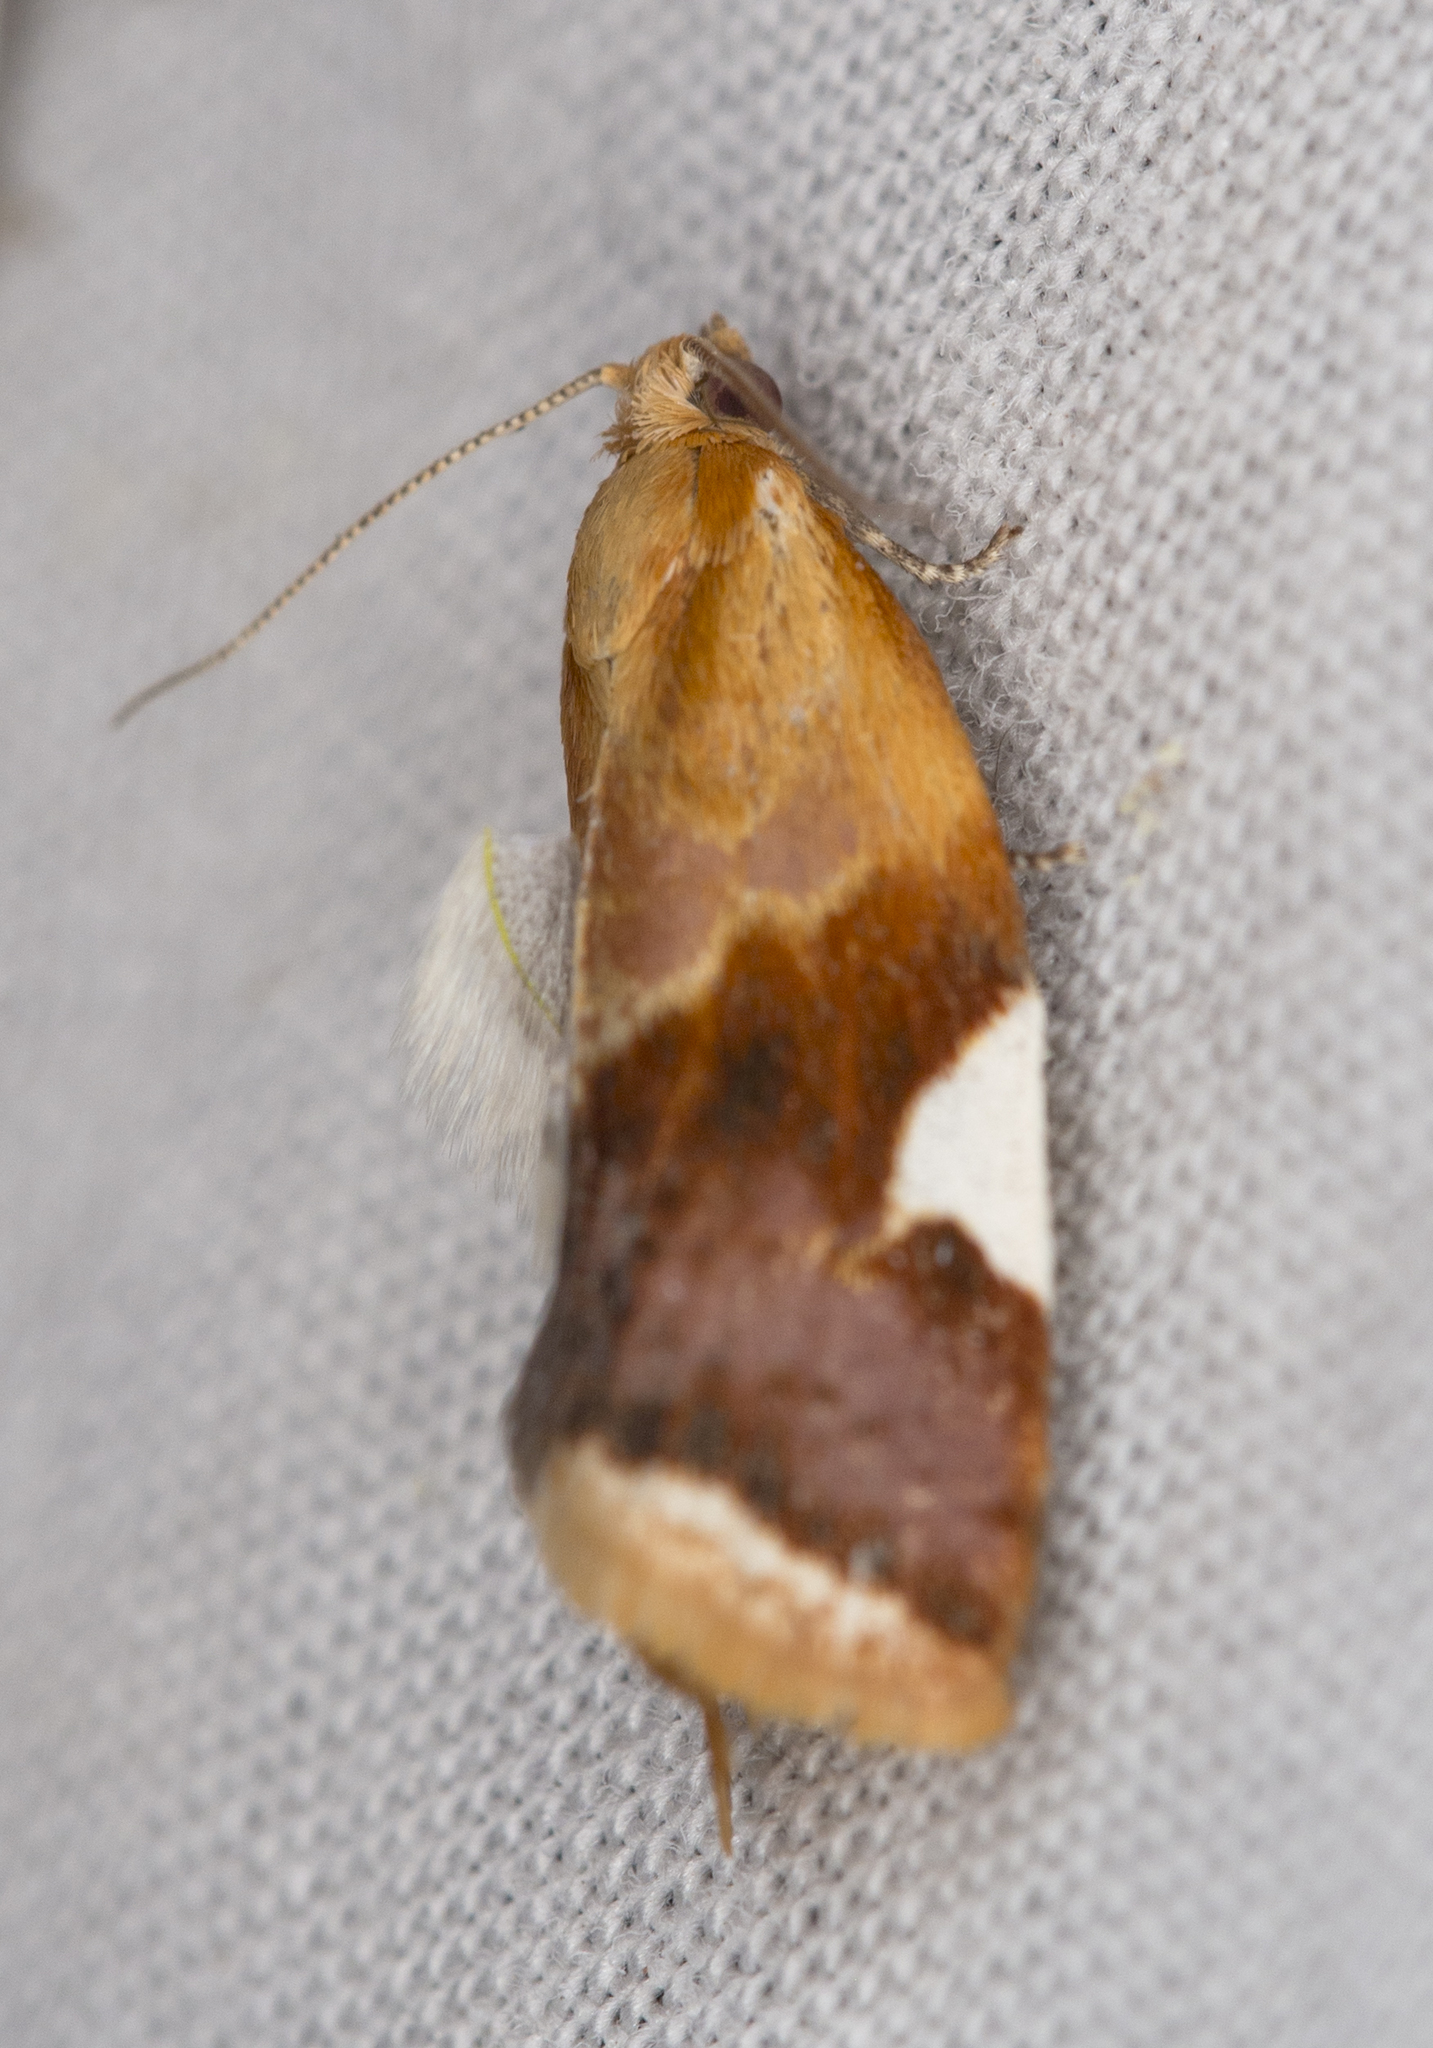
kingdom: Animalia
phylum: Arthropoda
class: Insecta
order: Lepidoptera
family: Tortricidae
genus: Clepsis
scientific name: Clepsis persicana
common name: White triangle tortrix
